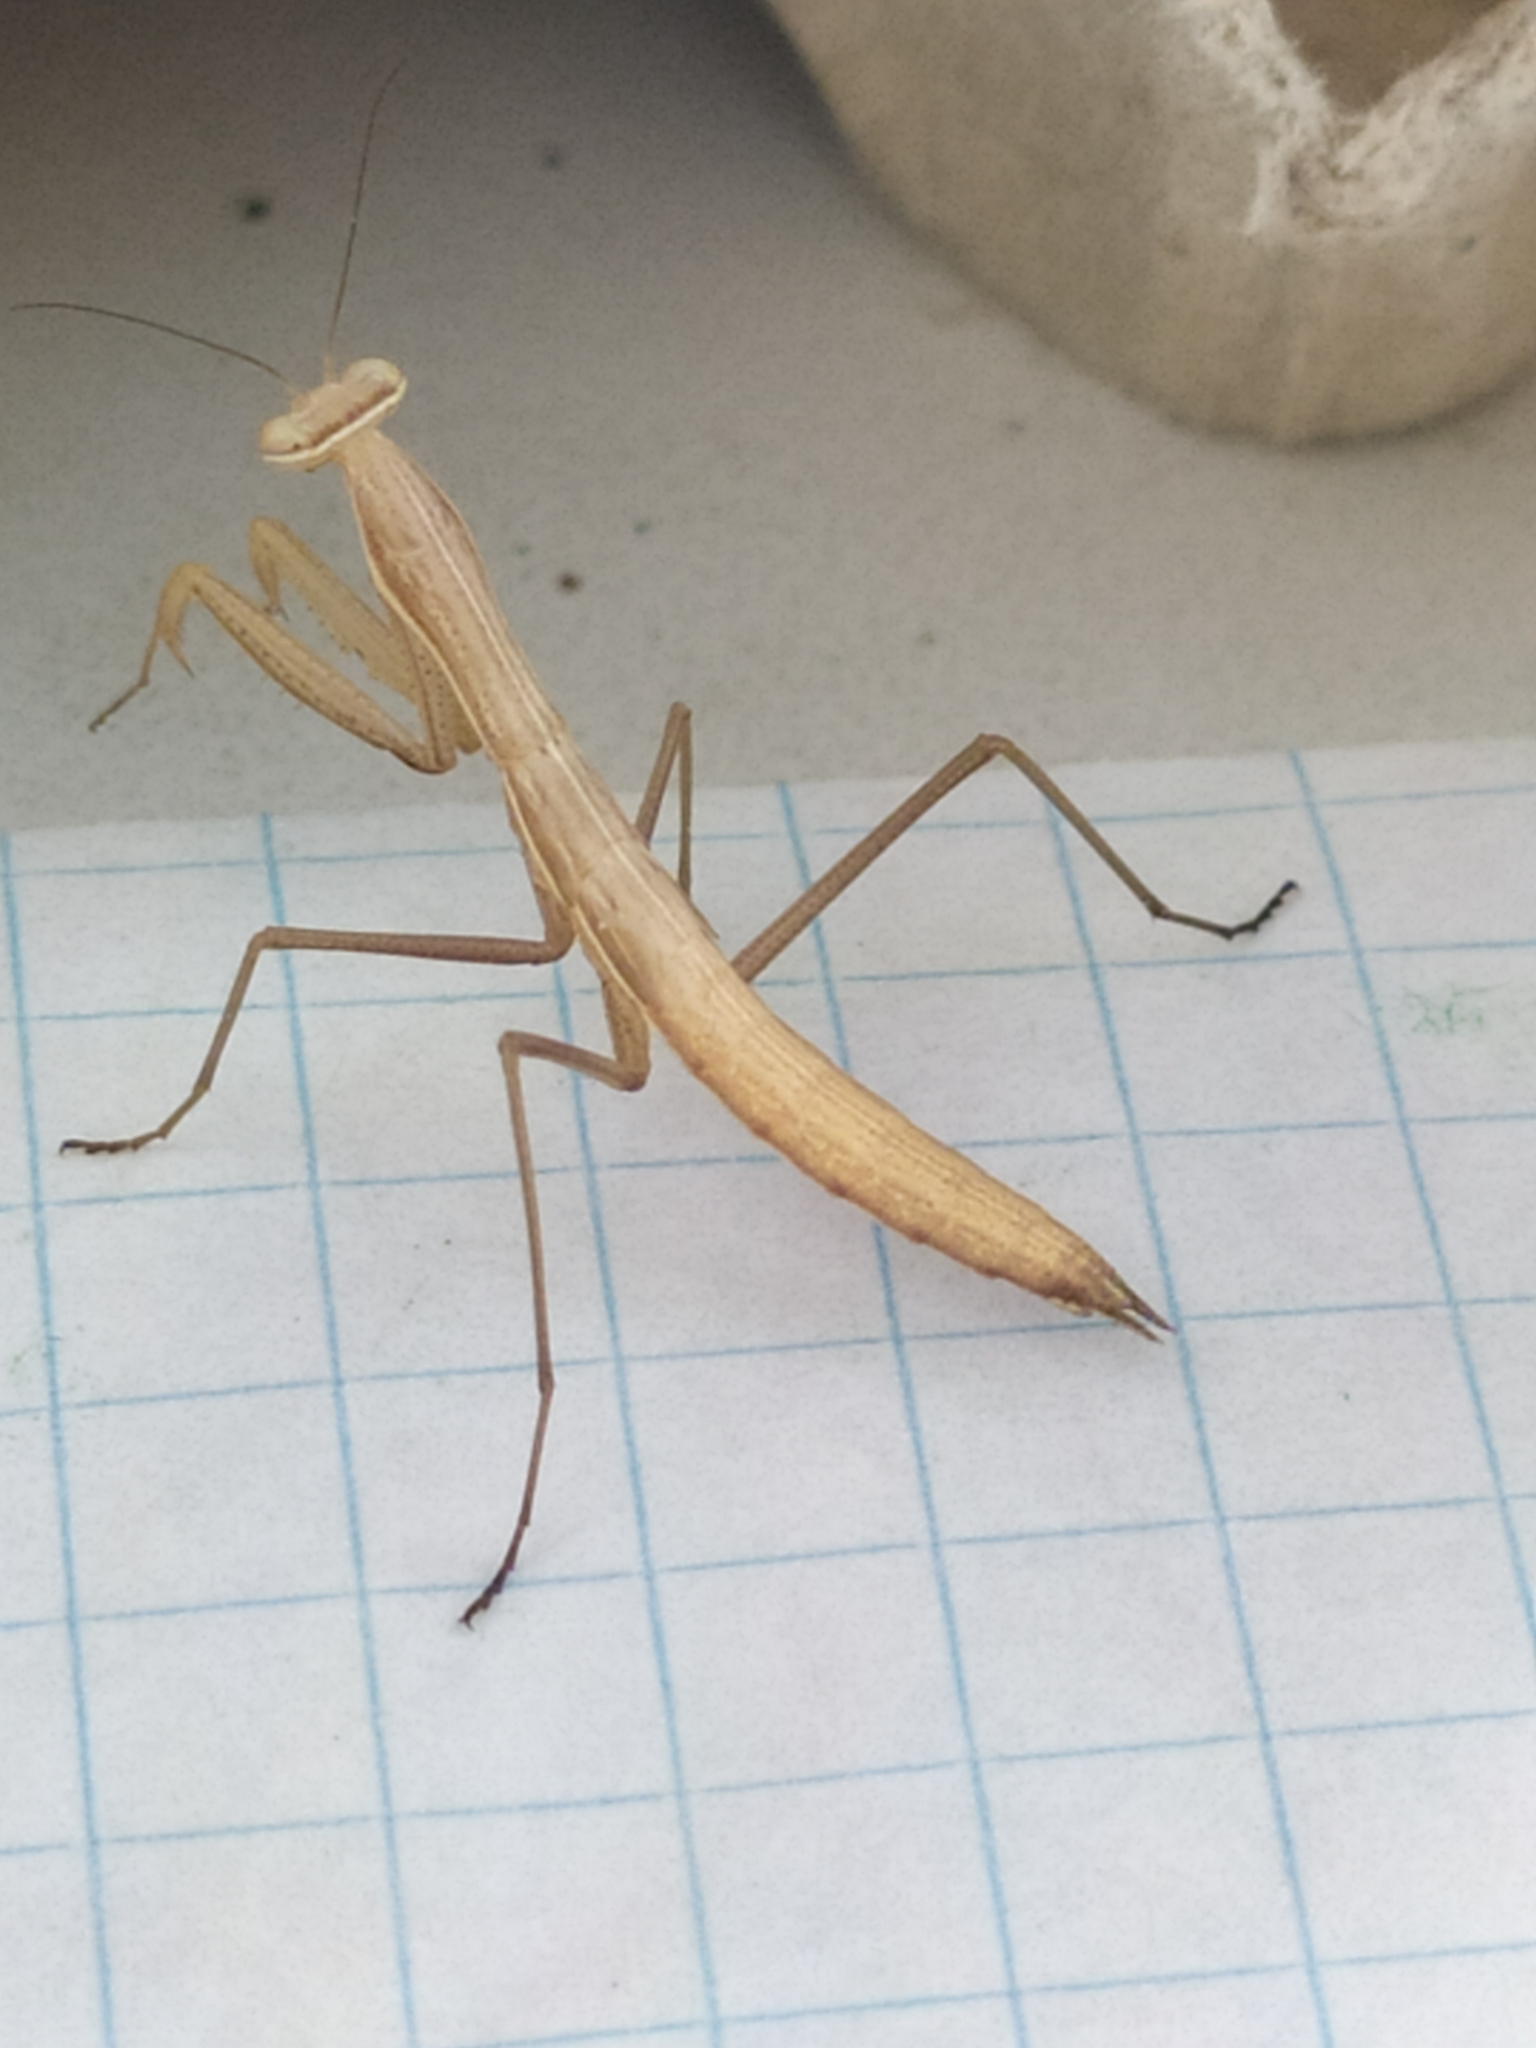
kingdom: Animalia
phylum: Arthropoda
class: Insecta
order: Mantodea
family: Mantidae
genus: Mantis
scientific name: Mantis religiosa
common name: Praying mantis
